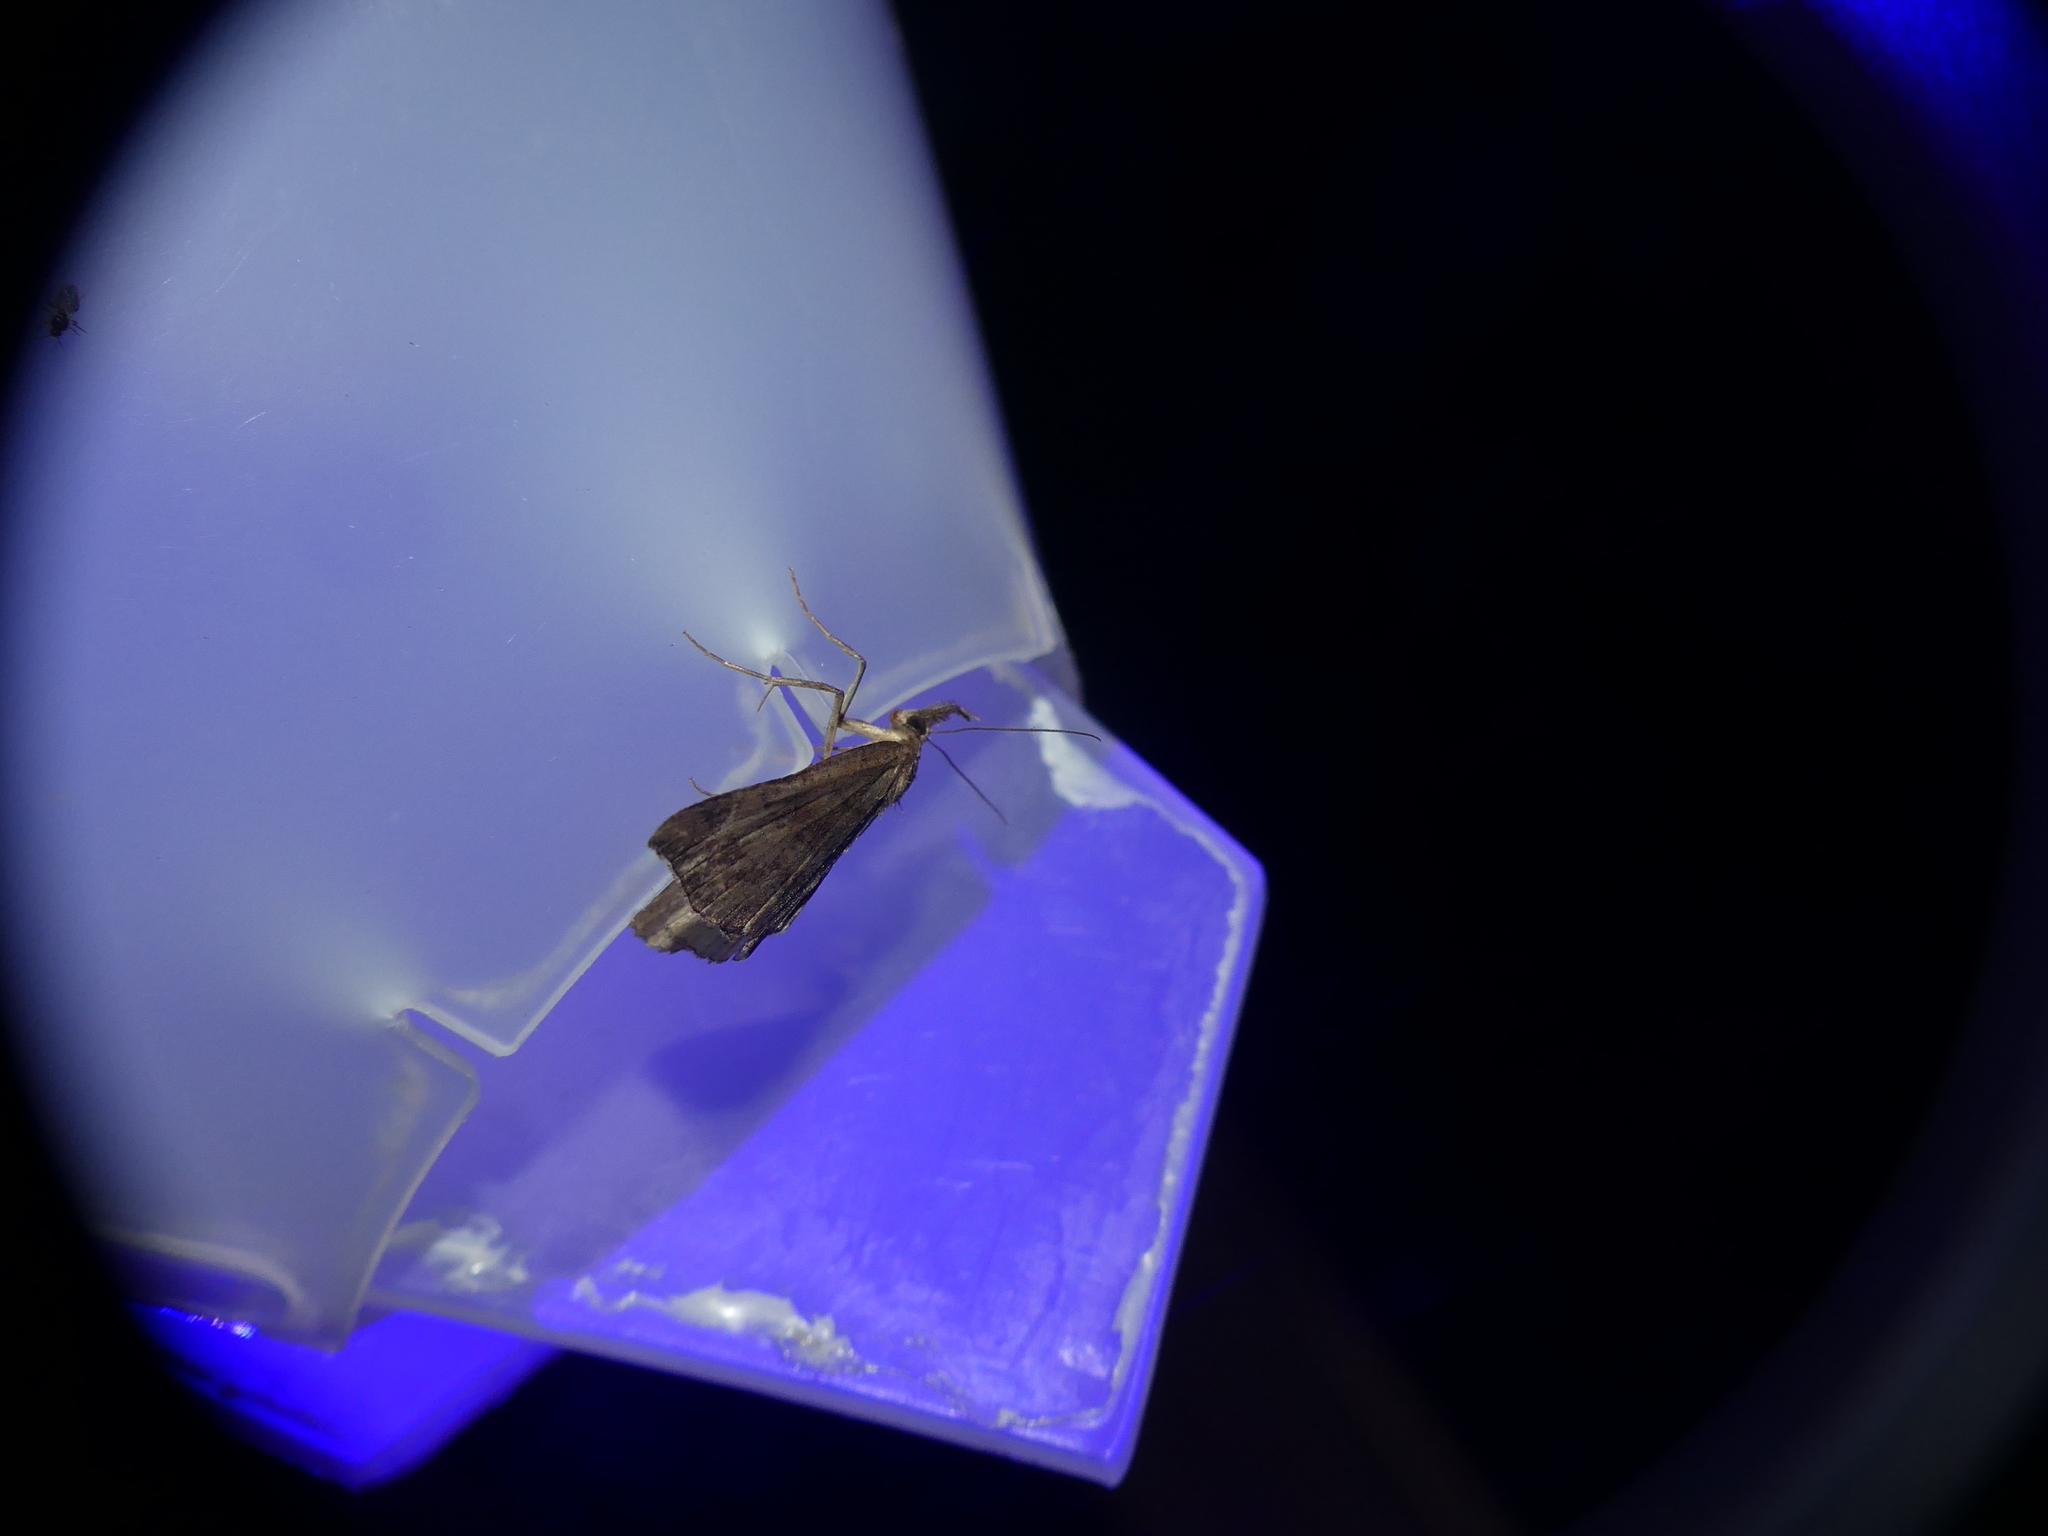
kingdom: Animalia
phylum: Arthropoda
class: Insecta
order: Lepidoptera
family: Erebidae
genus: Hypena
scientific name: Hypena proboscidalis
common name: Snout
